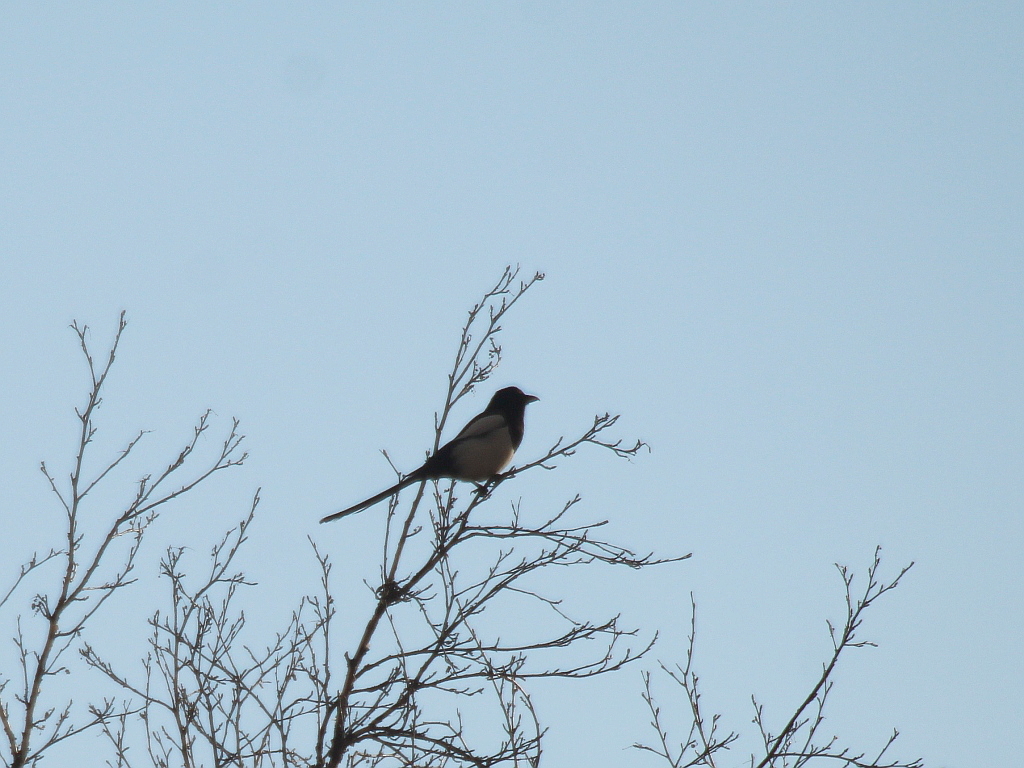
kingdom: Animalia
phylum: Chordata
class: Aves
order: Passeriformes
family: Corvidae
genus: Pica
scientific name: Pica pica
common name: Eurasian magpie
